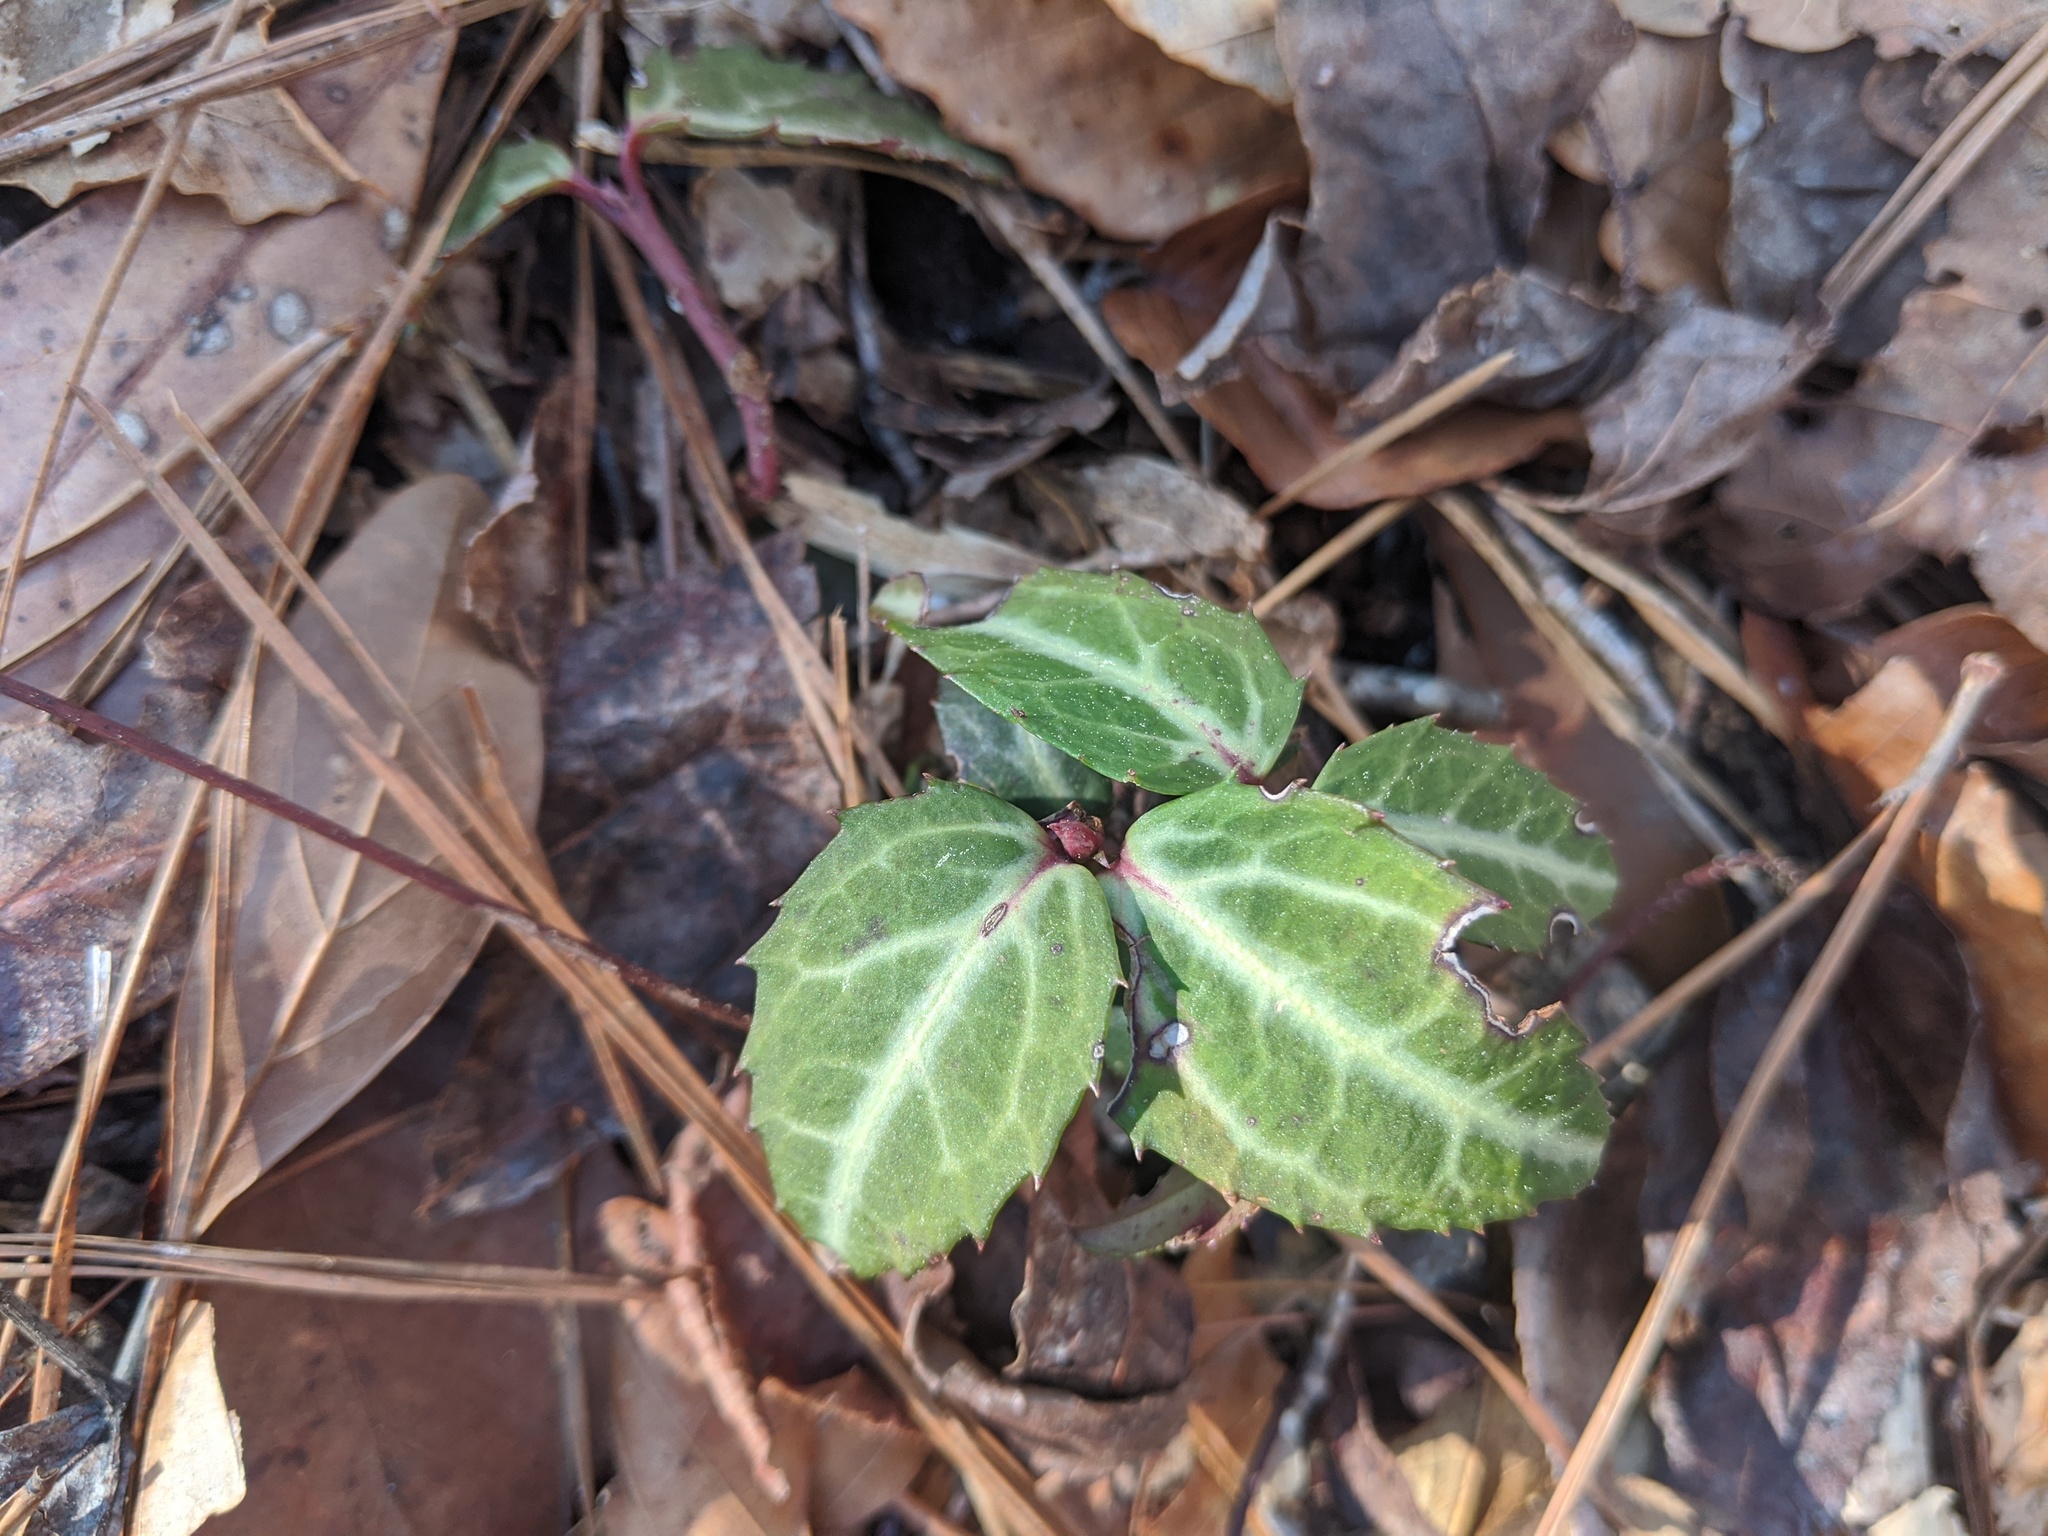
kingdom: Plantae
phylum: Tracheophyta
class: Magnoliopsida
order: Ericales
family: Ericaceae
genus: Chimaphila
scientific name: Chimaphila maculata
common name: Spotted pipsissewa
